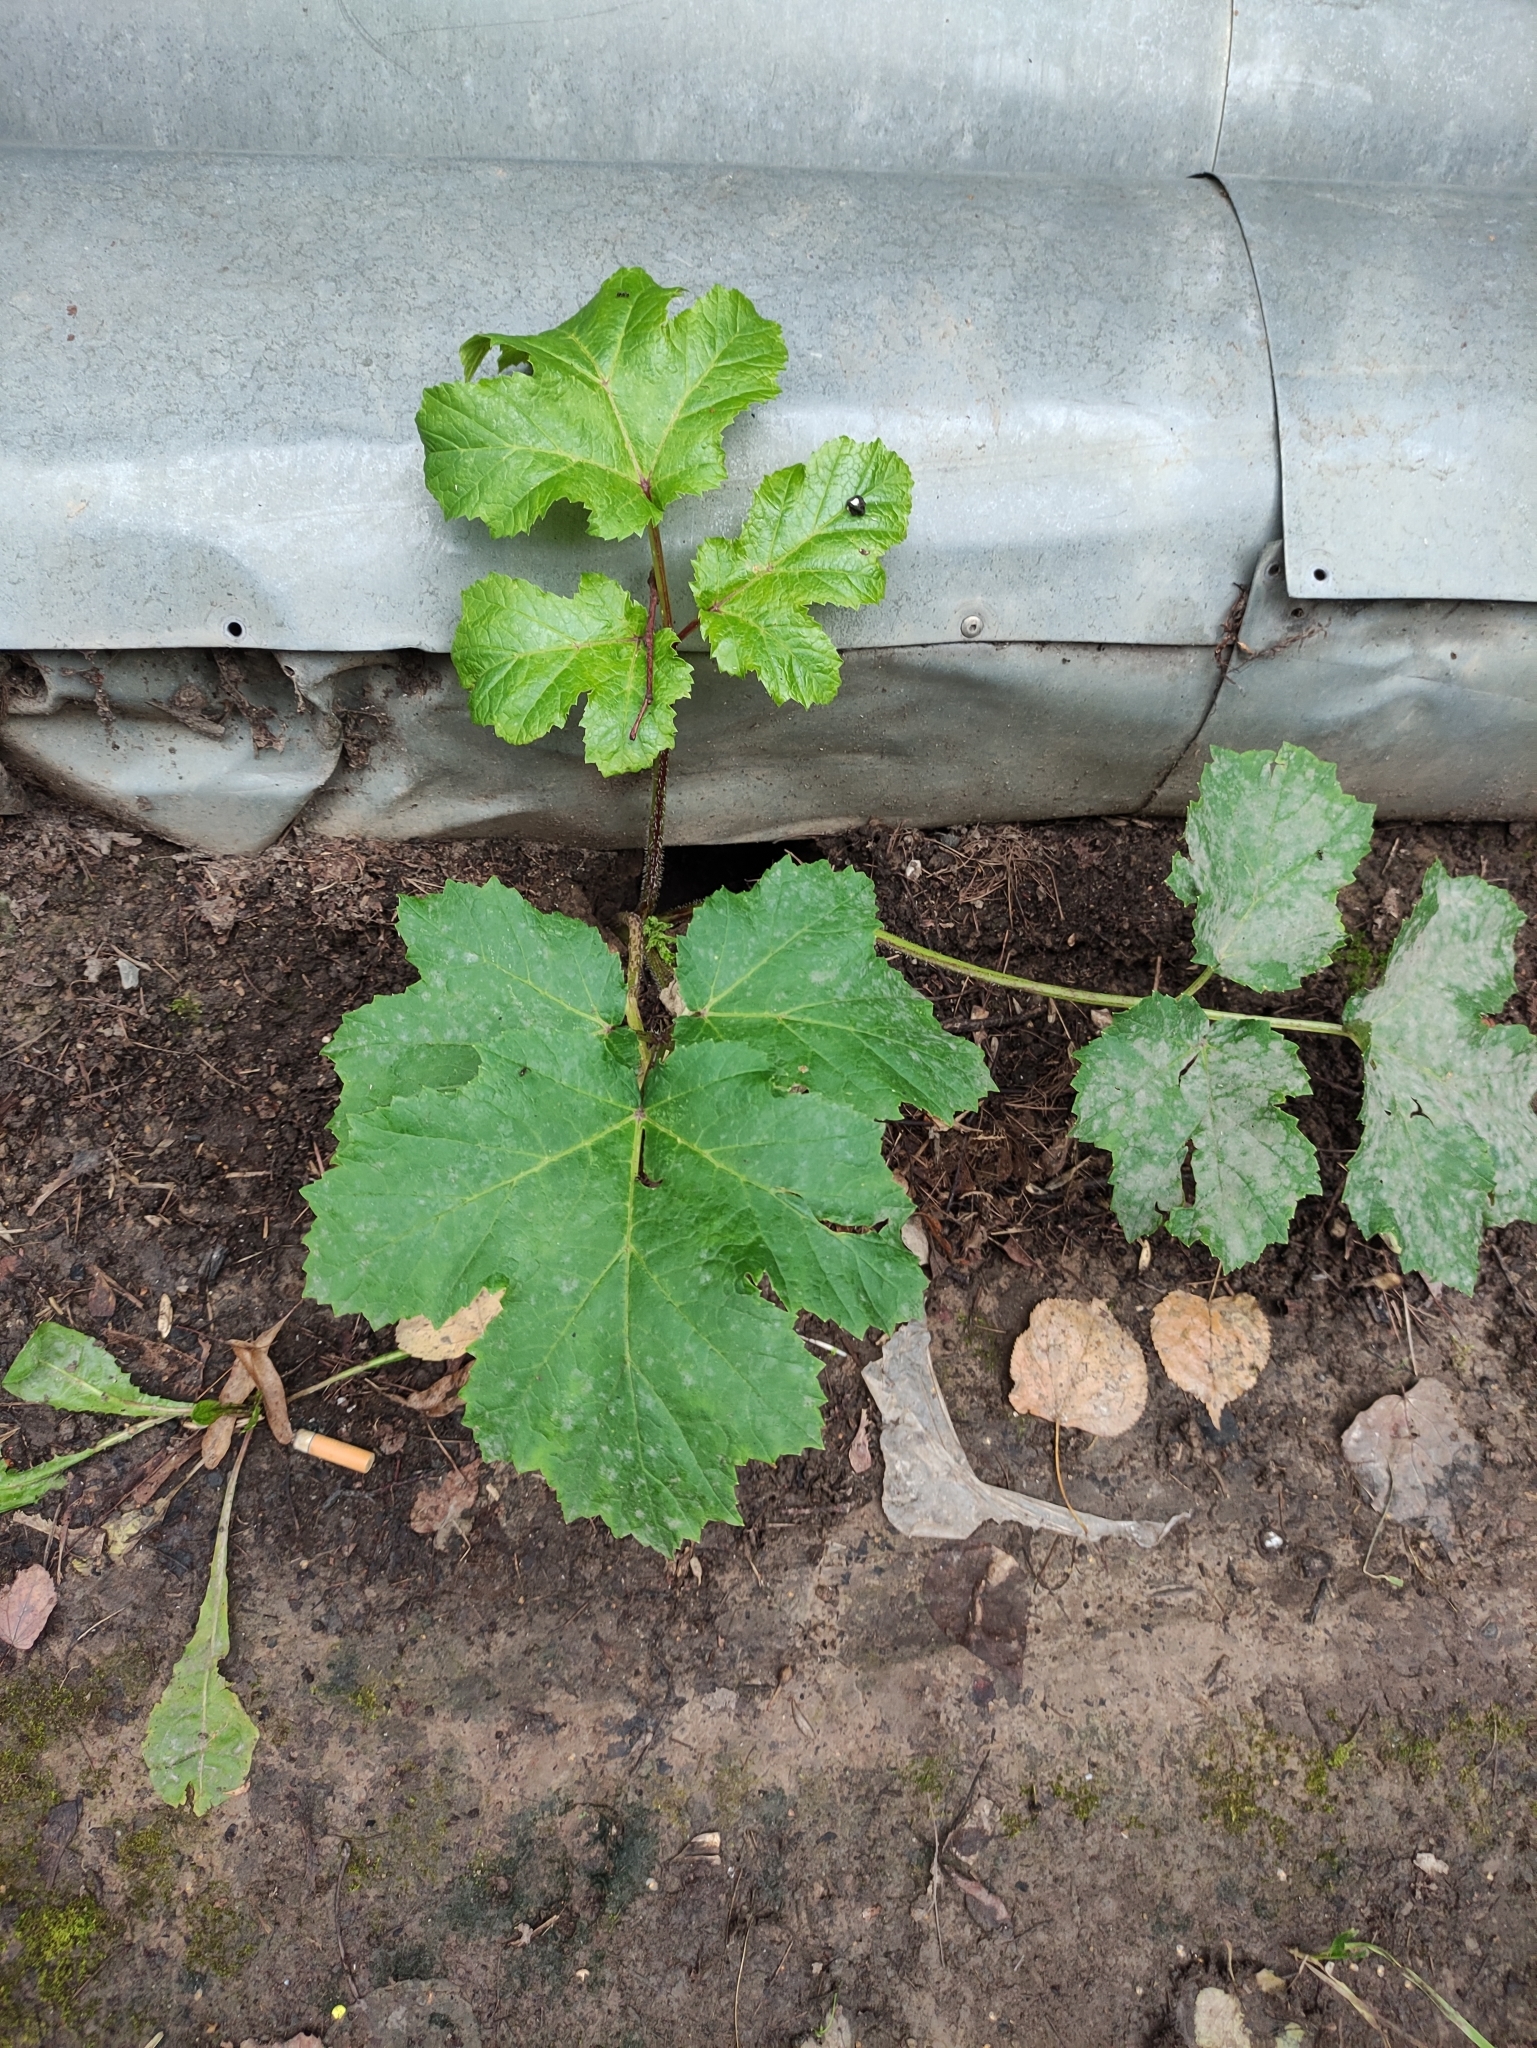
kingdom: Plantae
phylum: Tracheophyta
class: Magnoliopsida
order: Apiales
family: Apiaceae
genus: Heracleum
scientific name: Heracleum sosnowskyi
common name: Sosnowsky's hogweed
